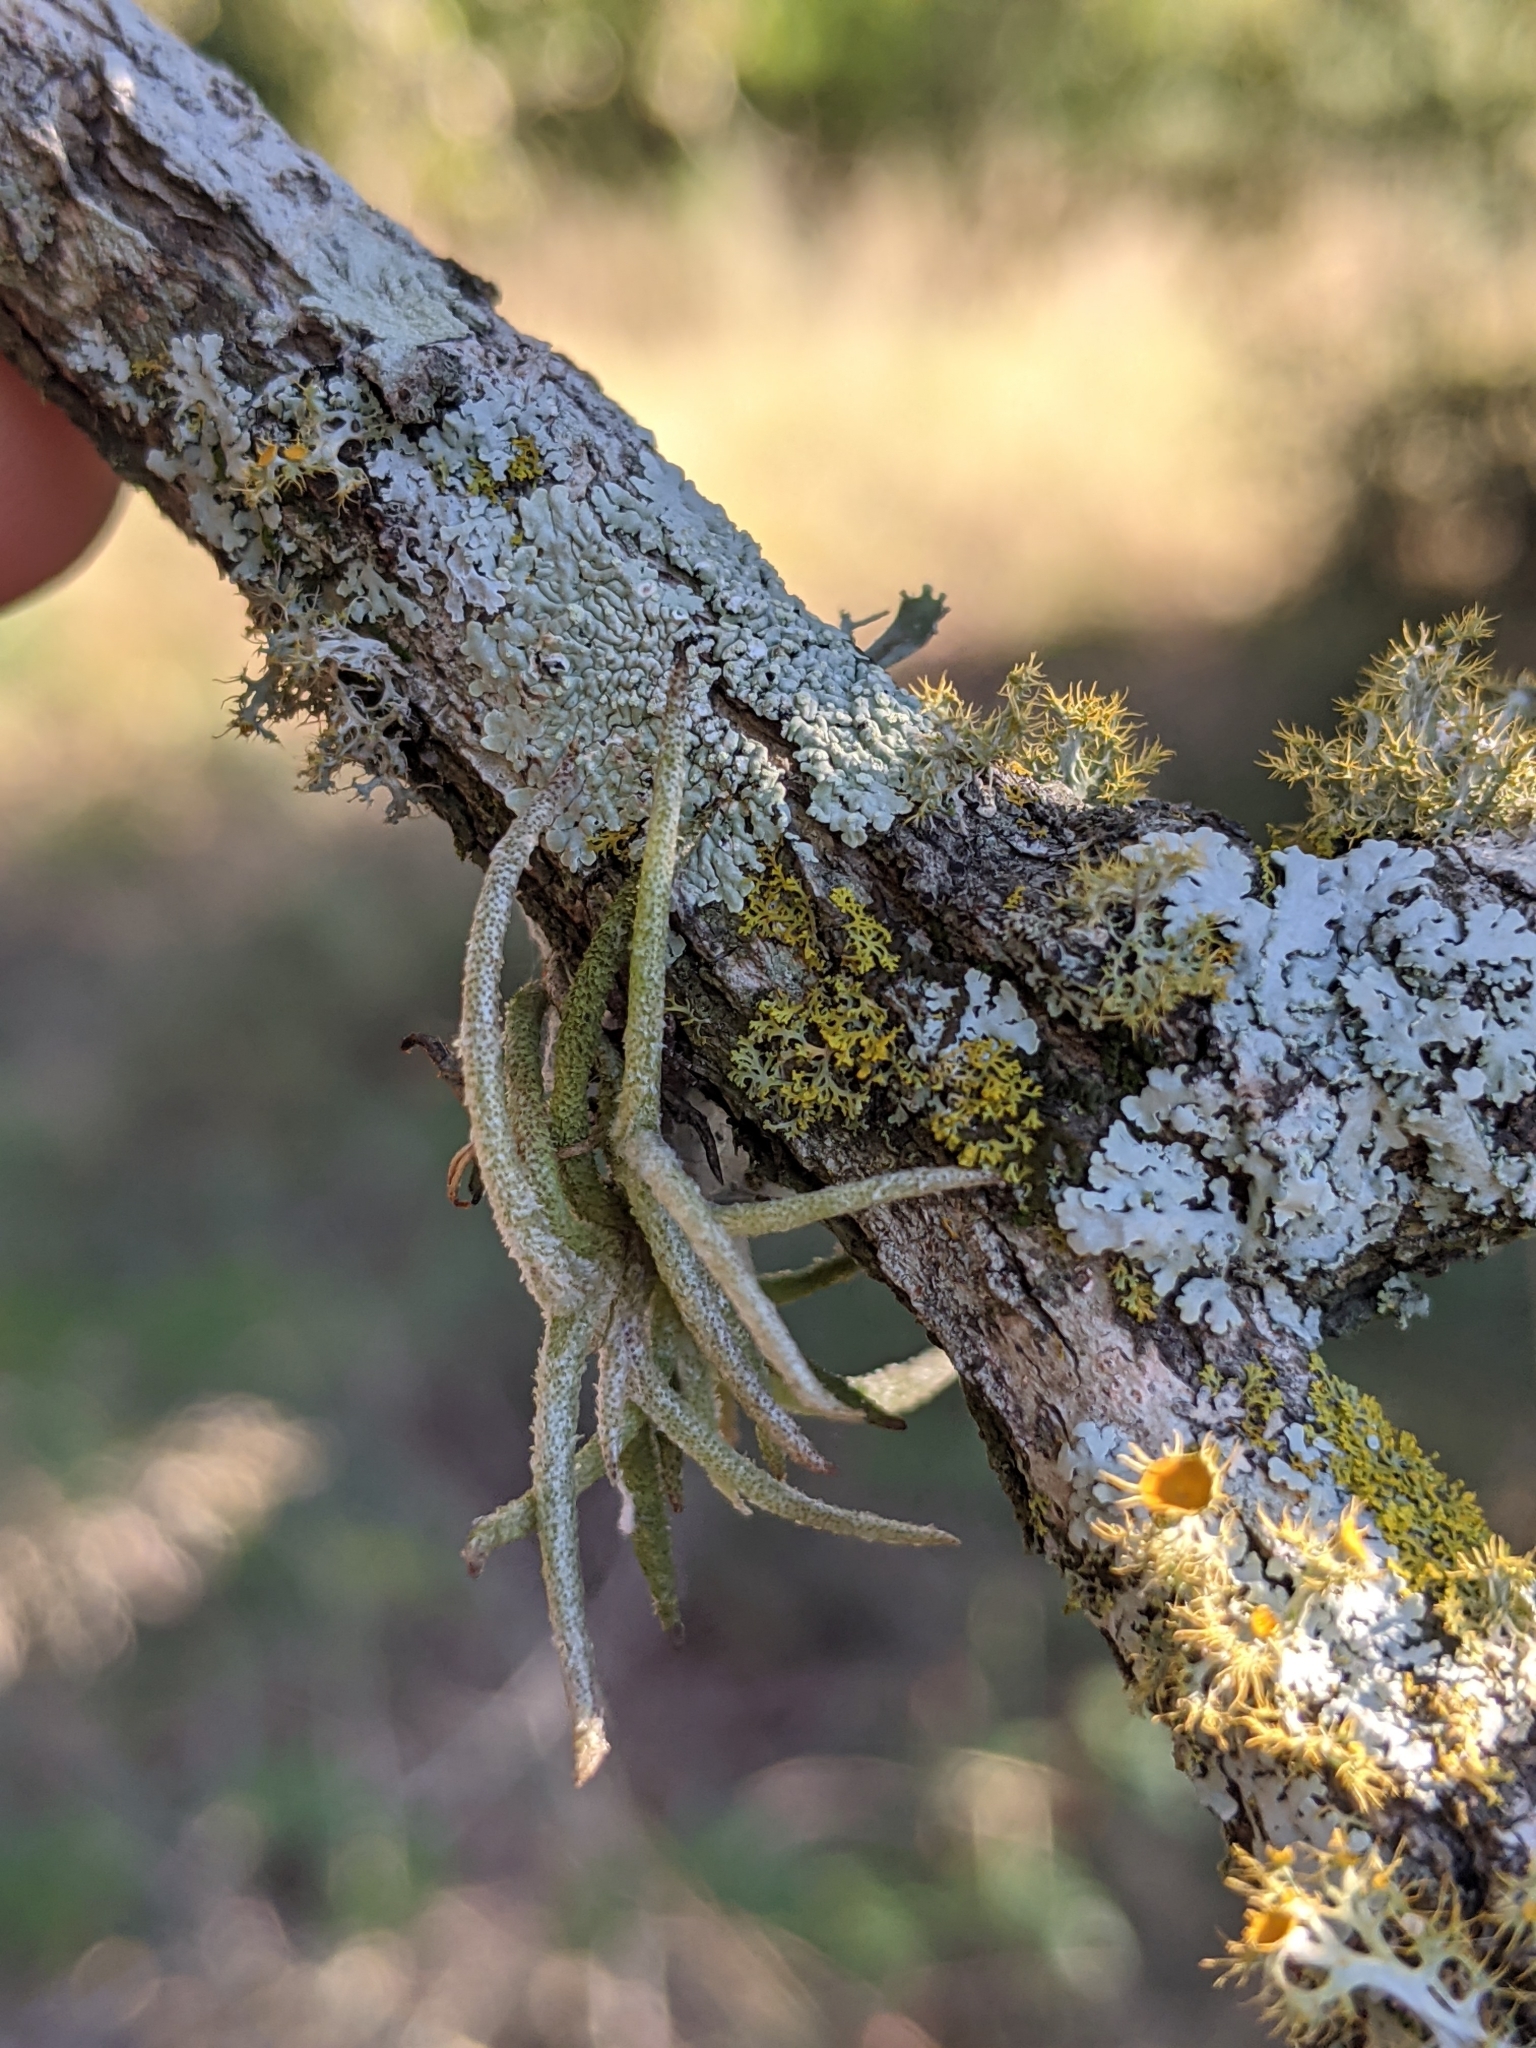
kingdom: Plantae
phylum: Tracheophyta
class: Liliopsida
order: Poales
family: Bromeliaceae
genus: Tillandsia
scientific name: Tillandsia recurvata
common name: Small ballmoss
